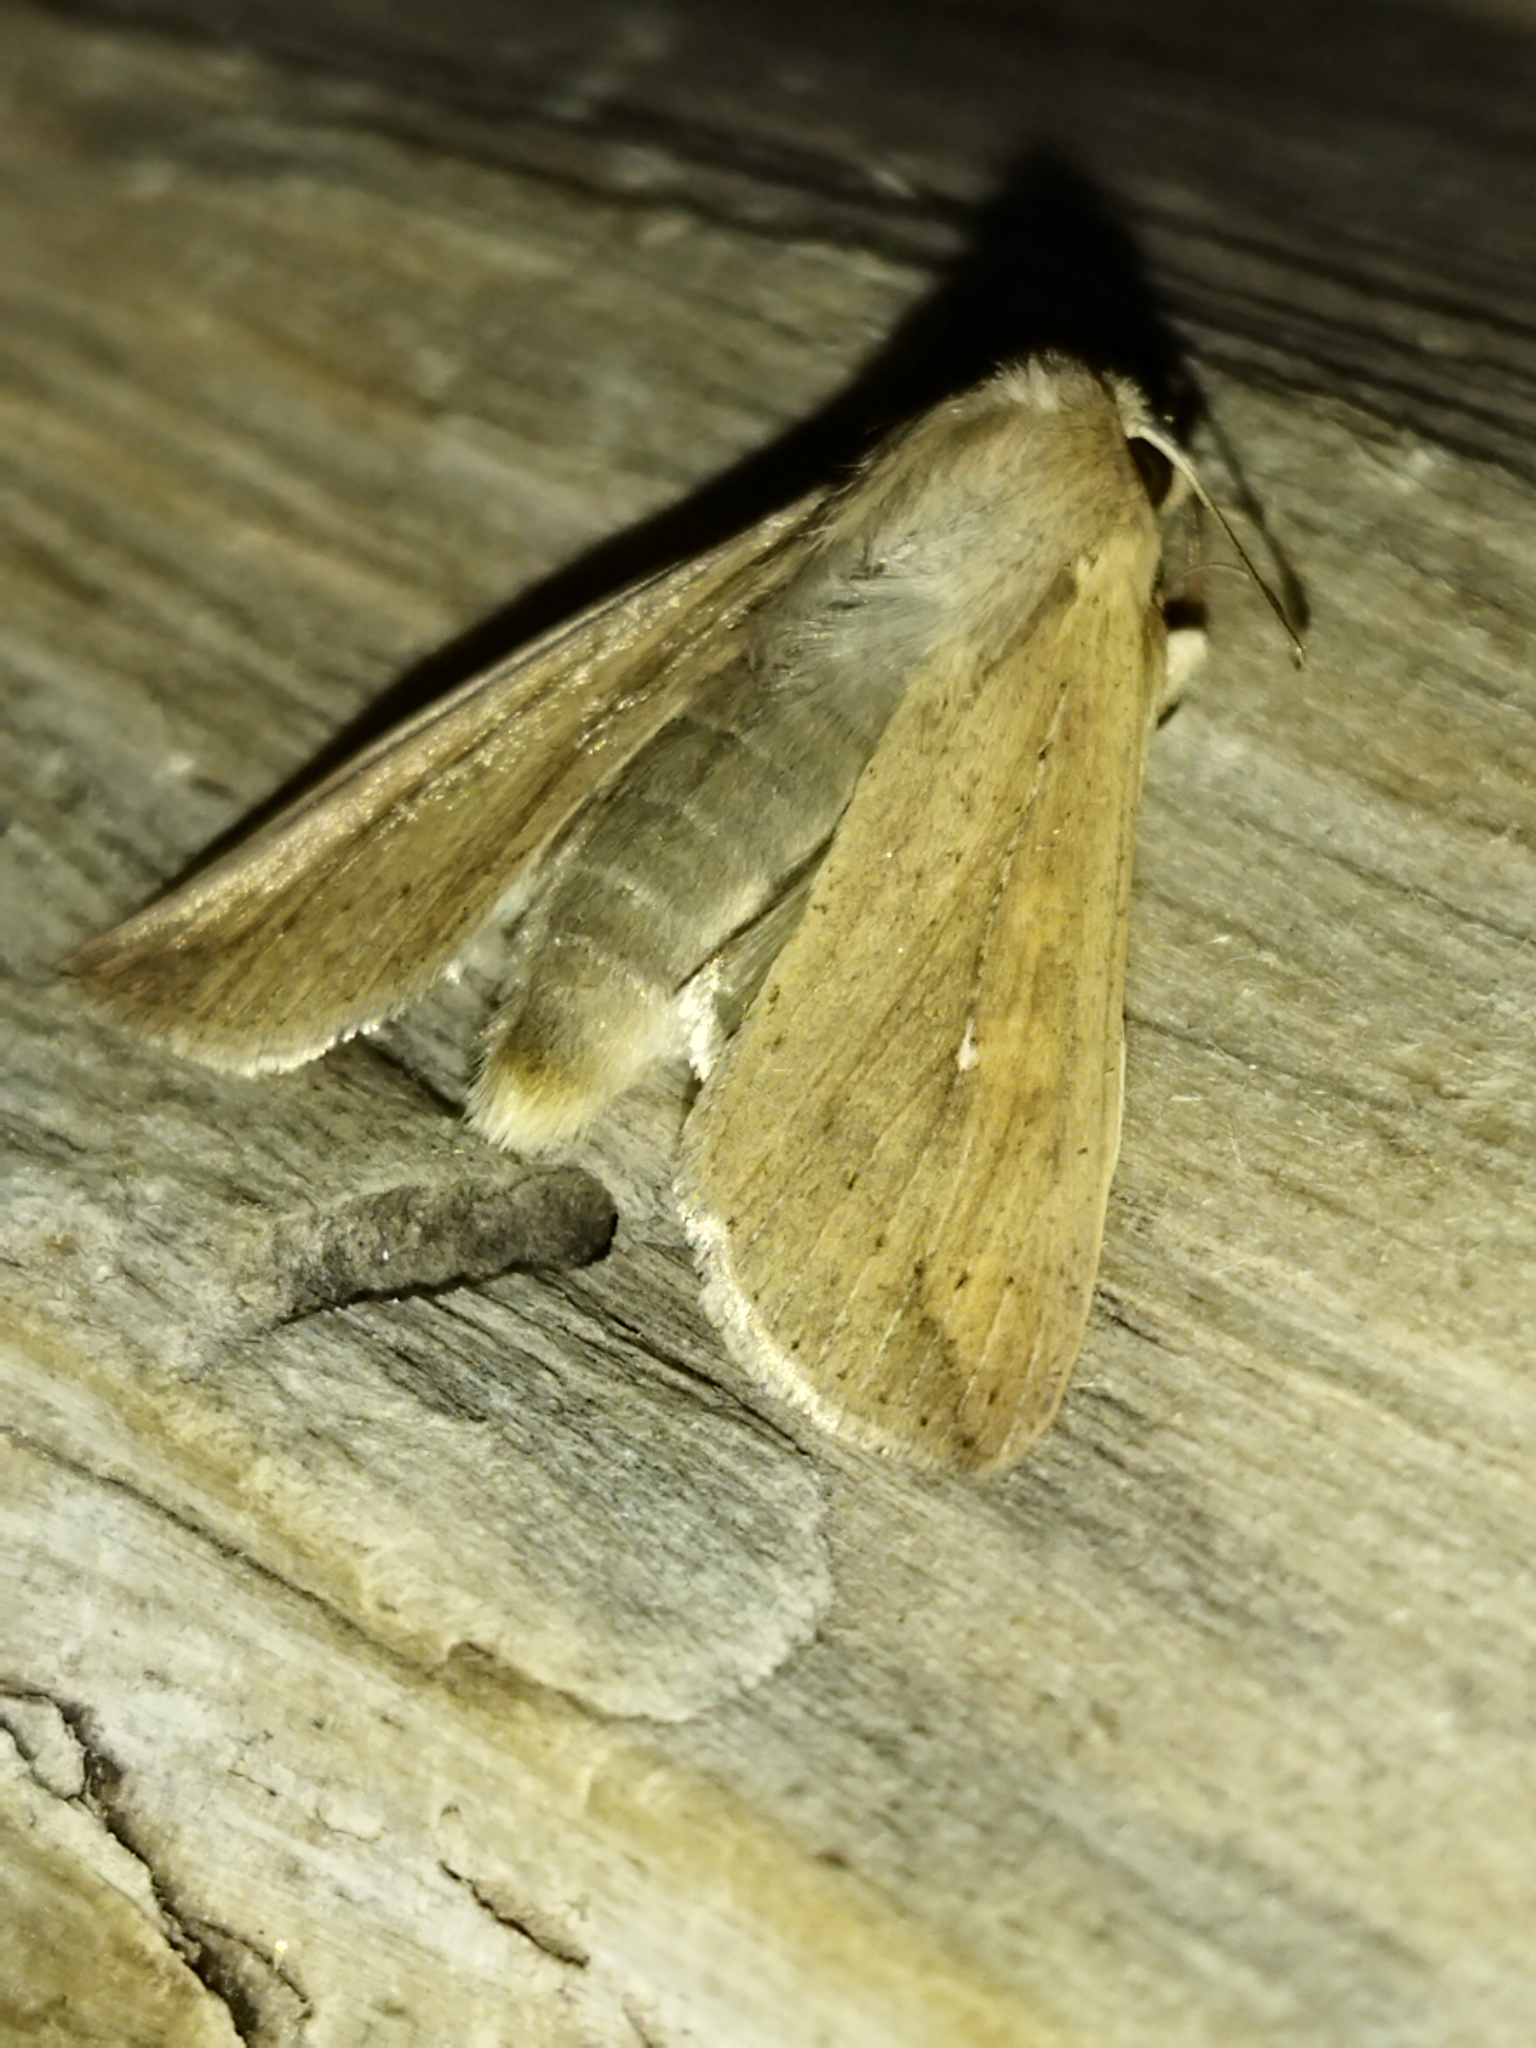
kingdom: Animalia
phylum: Arthropoda
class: Insecta
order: Lepidoptera
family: Noctuidae
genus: Mythimna
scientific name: Mythimna unipuncta
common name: White-speck
